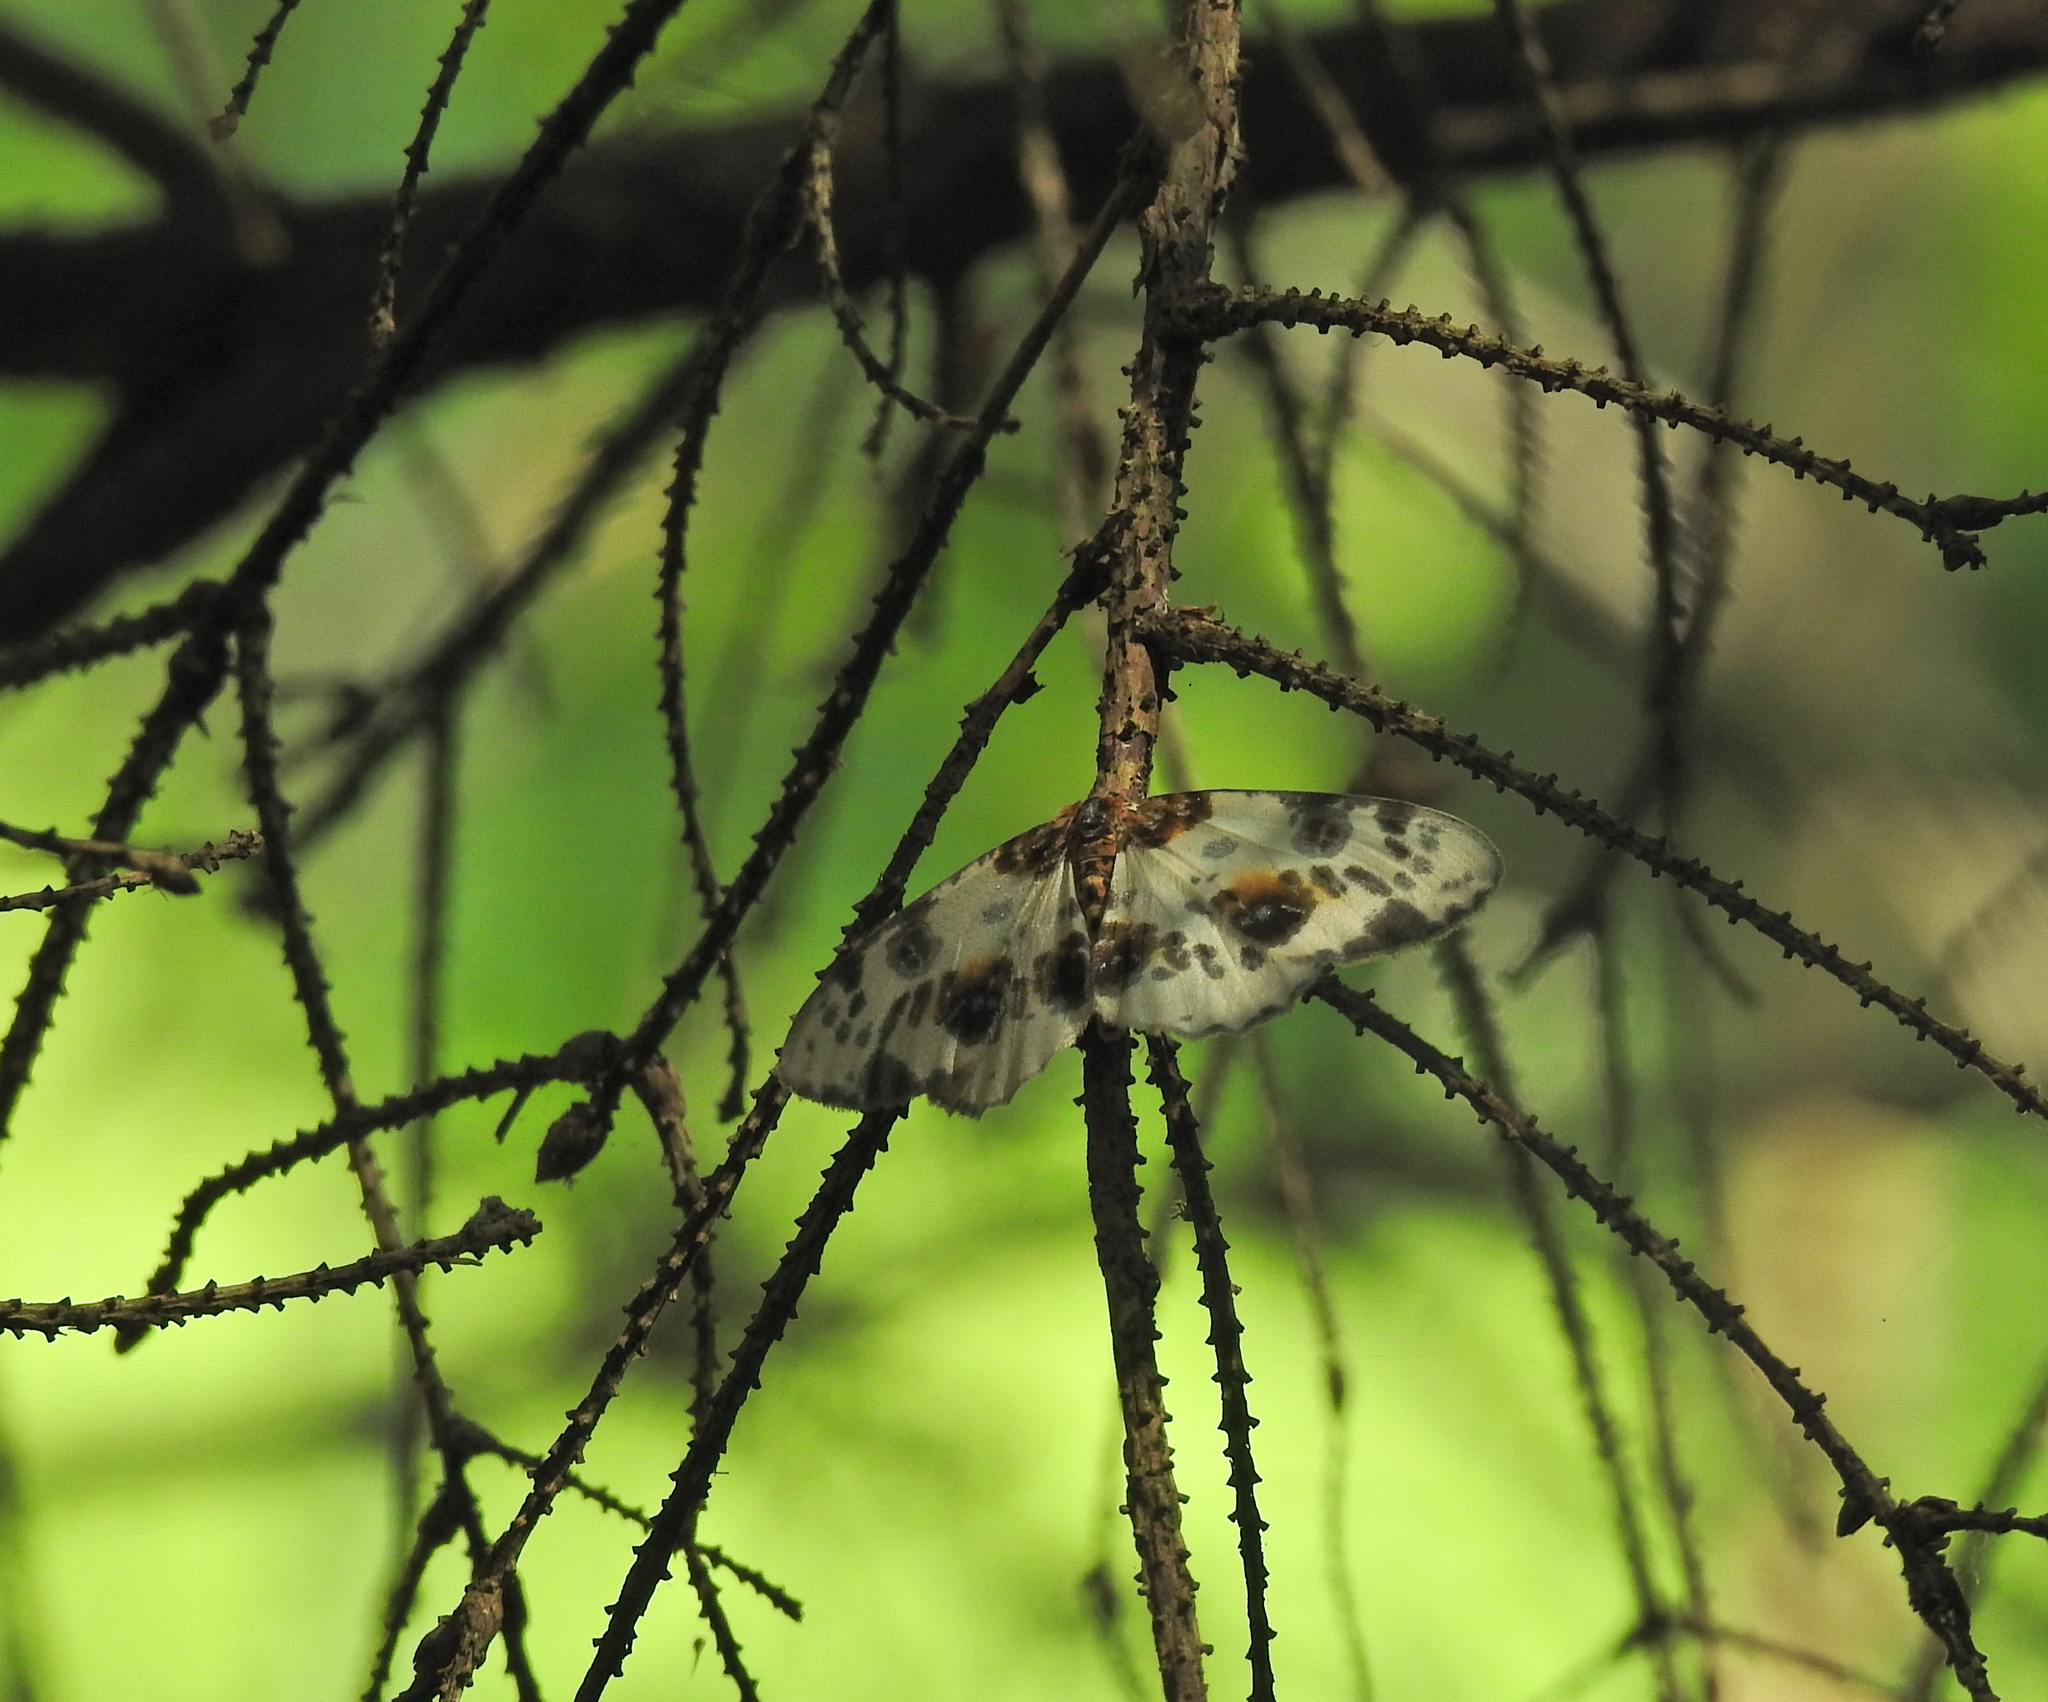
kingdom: Animalia
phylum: Arthropoda
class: Insecta
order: Lepidoptera
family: Geometridae
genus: Abraxas
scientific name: Abraxas sylvata
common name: Clouded magpie
